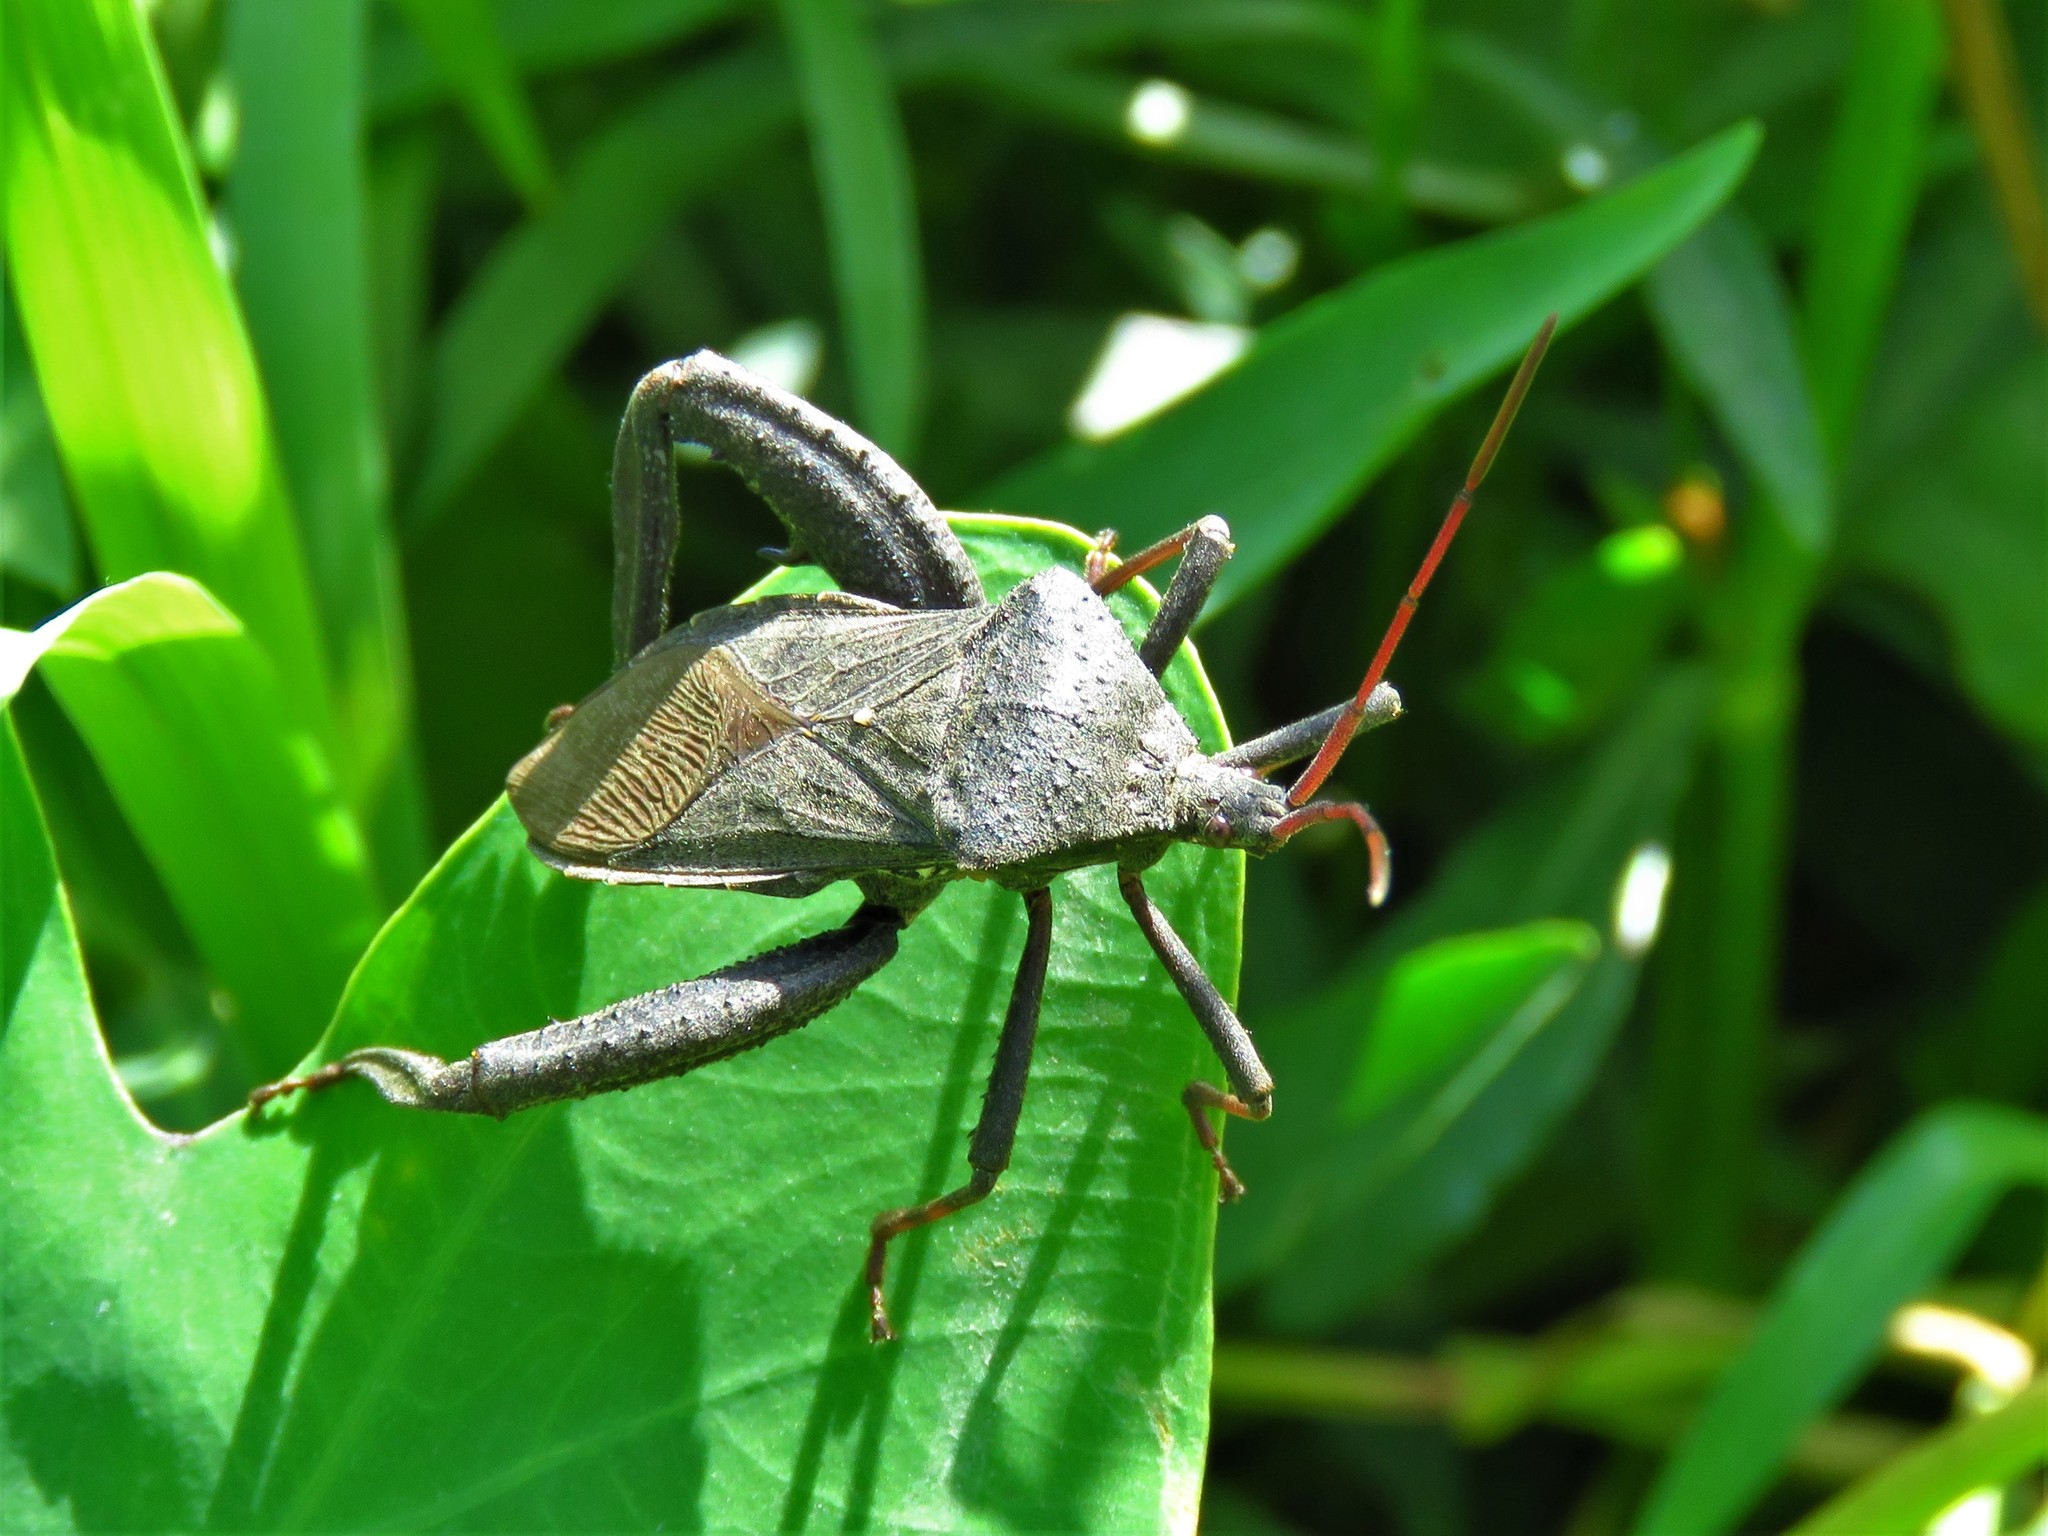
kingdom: Animalia
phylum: Arthropoda
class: Insecta
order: Hemiptera
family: Coreidae
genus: Acanthocephala
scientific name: Acanthocephala femorata
